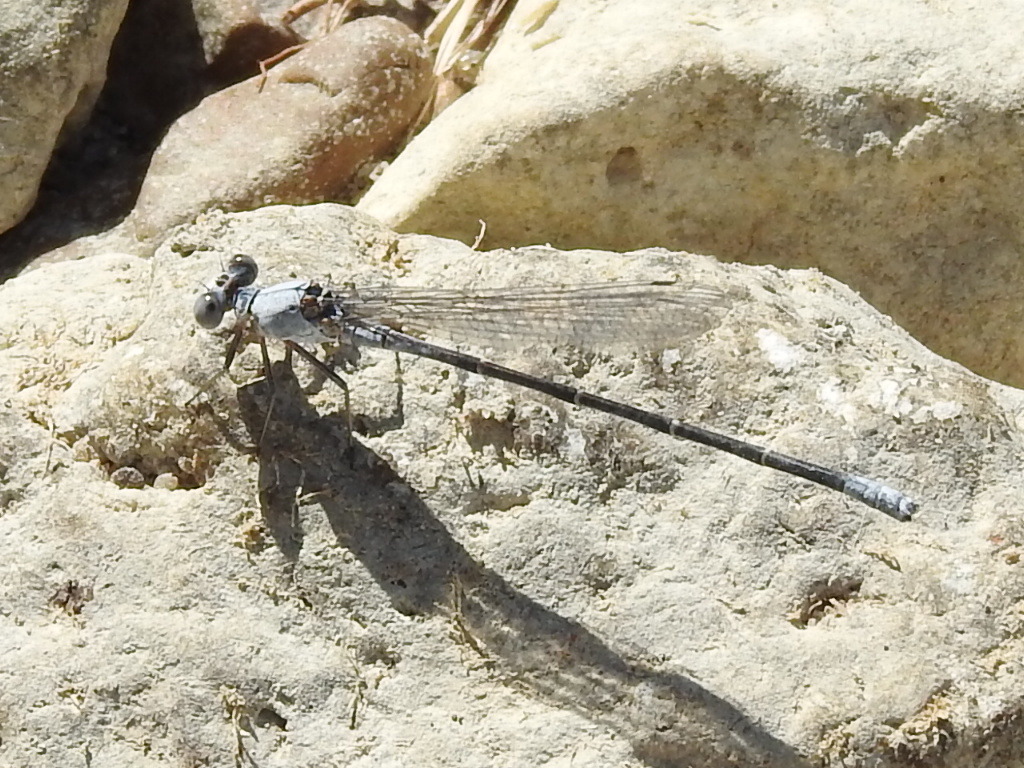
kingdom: Animalia
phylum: Arthropoda
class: Insecta
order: Odonata
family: Coenagrionidae
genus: Argia
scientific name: Argia moesta
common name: Powdered dancer
